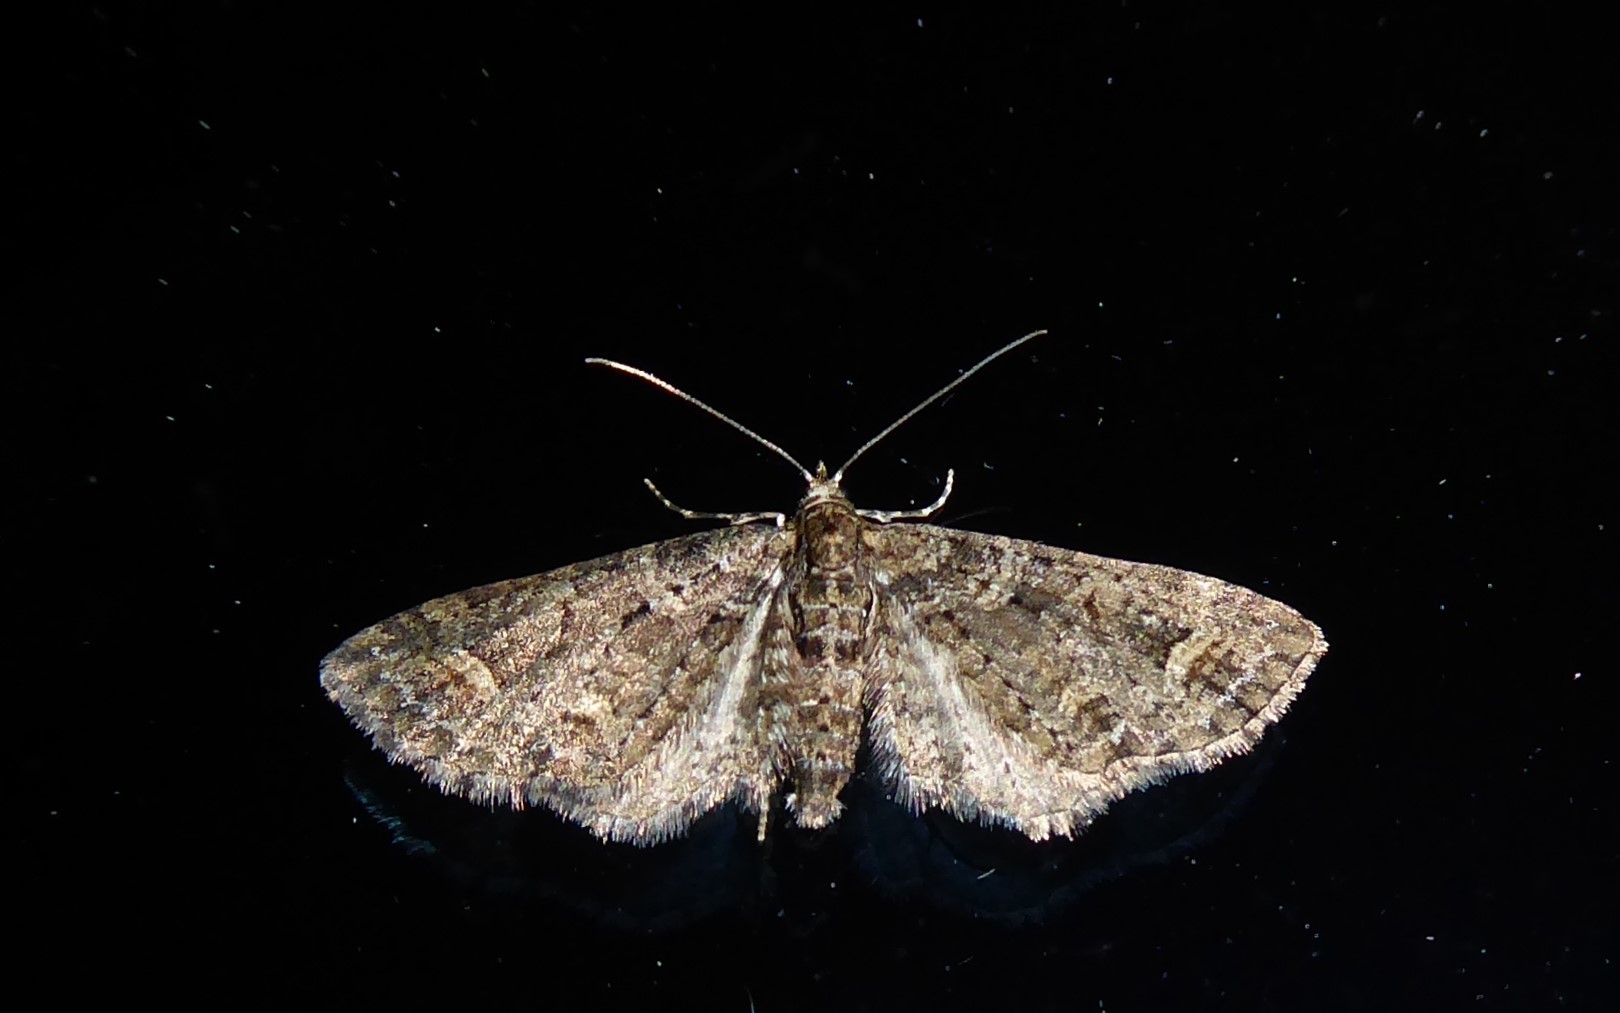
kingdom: Animalia
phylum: Arthropoda
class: Insecta
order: Lepidoptera
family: Geometridae
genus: Idaea
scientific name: Idaea mutanda
